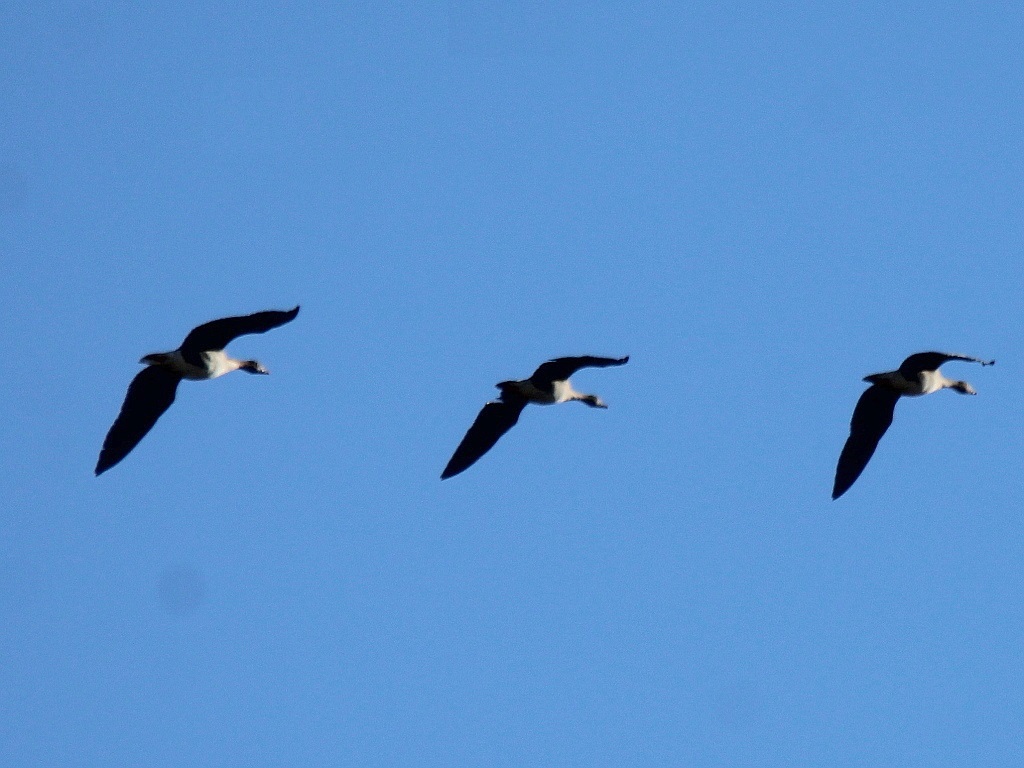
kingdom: Animalia
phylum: Chordata
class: Aves
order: Anseriformes
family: Anatidae
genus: Anser
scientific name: Anser fabalis
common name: Bean goose
